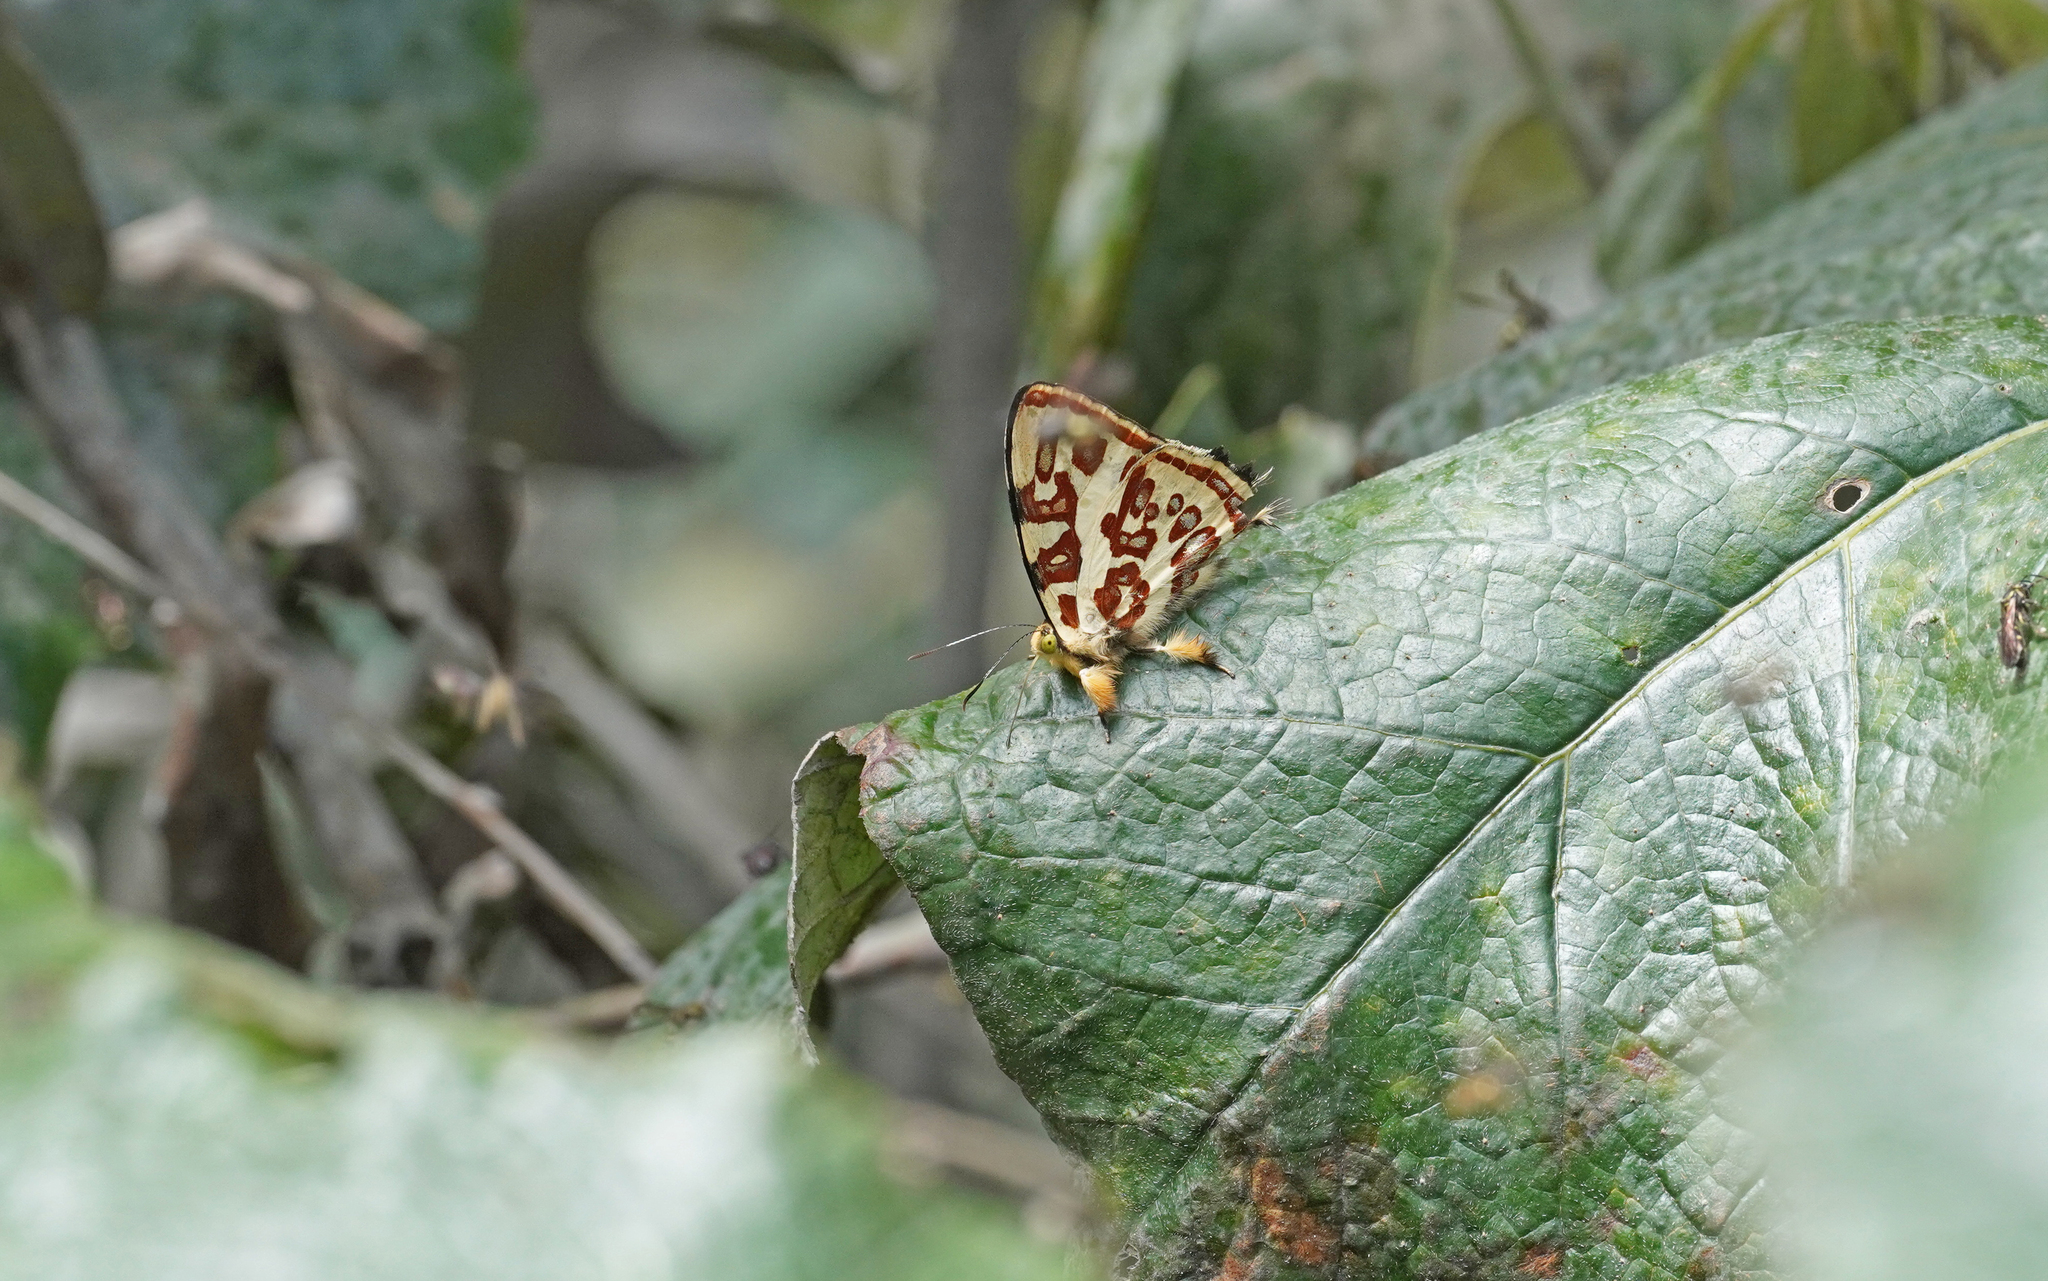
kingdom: Animalia
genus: Anteros
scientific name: Anteros kupris
